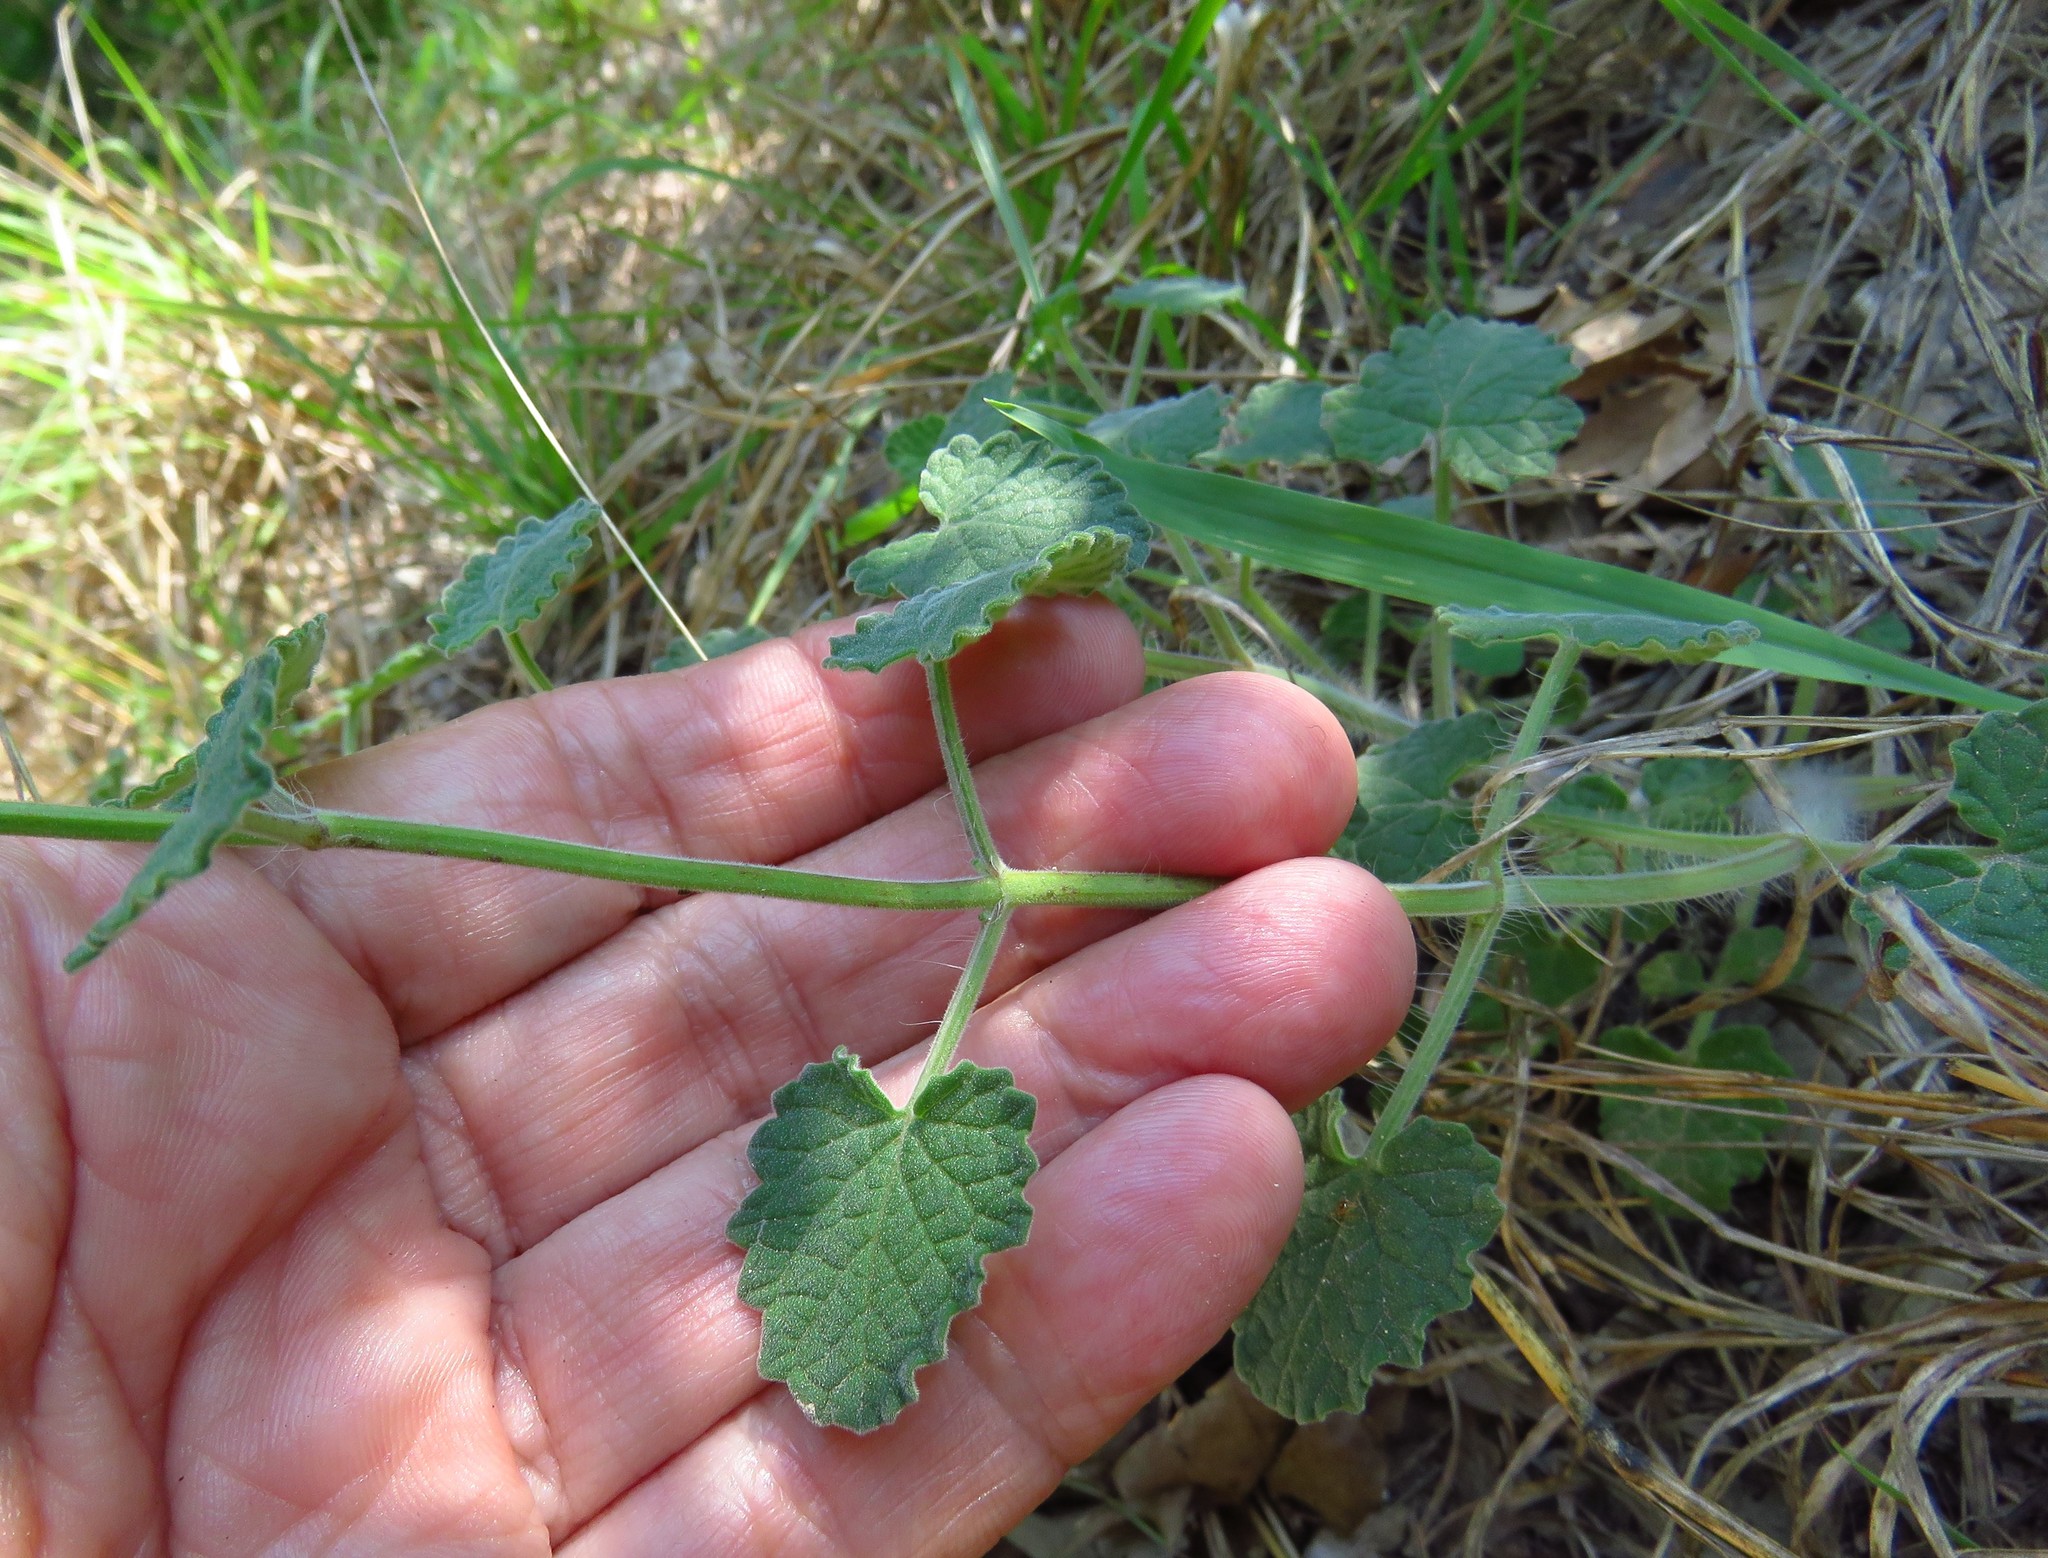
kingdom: Plantae
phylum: Tracheophyta
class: Magnoliopsida
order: Lamiales
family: Lamiaceae
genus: Salvia
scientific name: Salvia roemeriana
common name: Cedar sage
